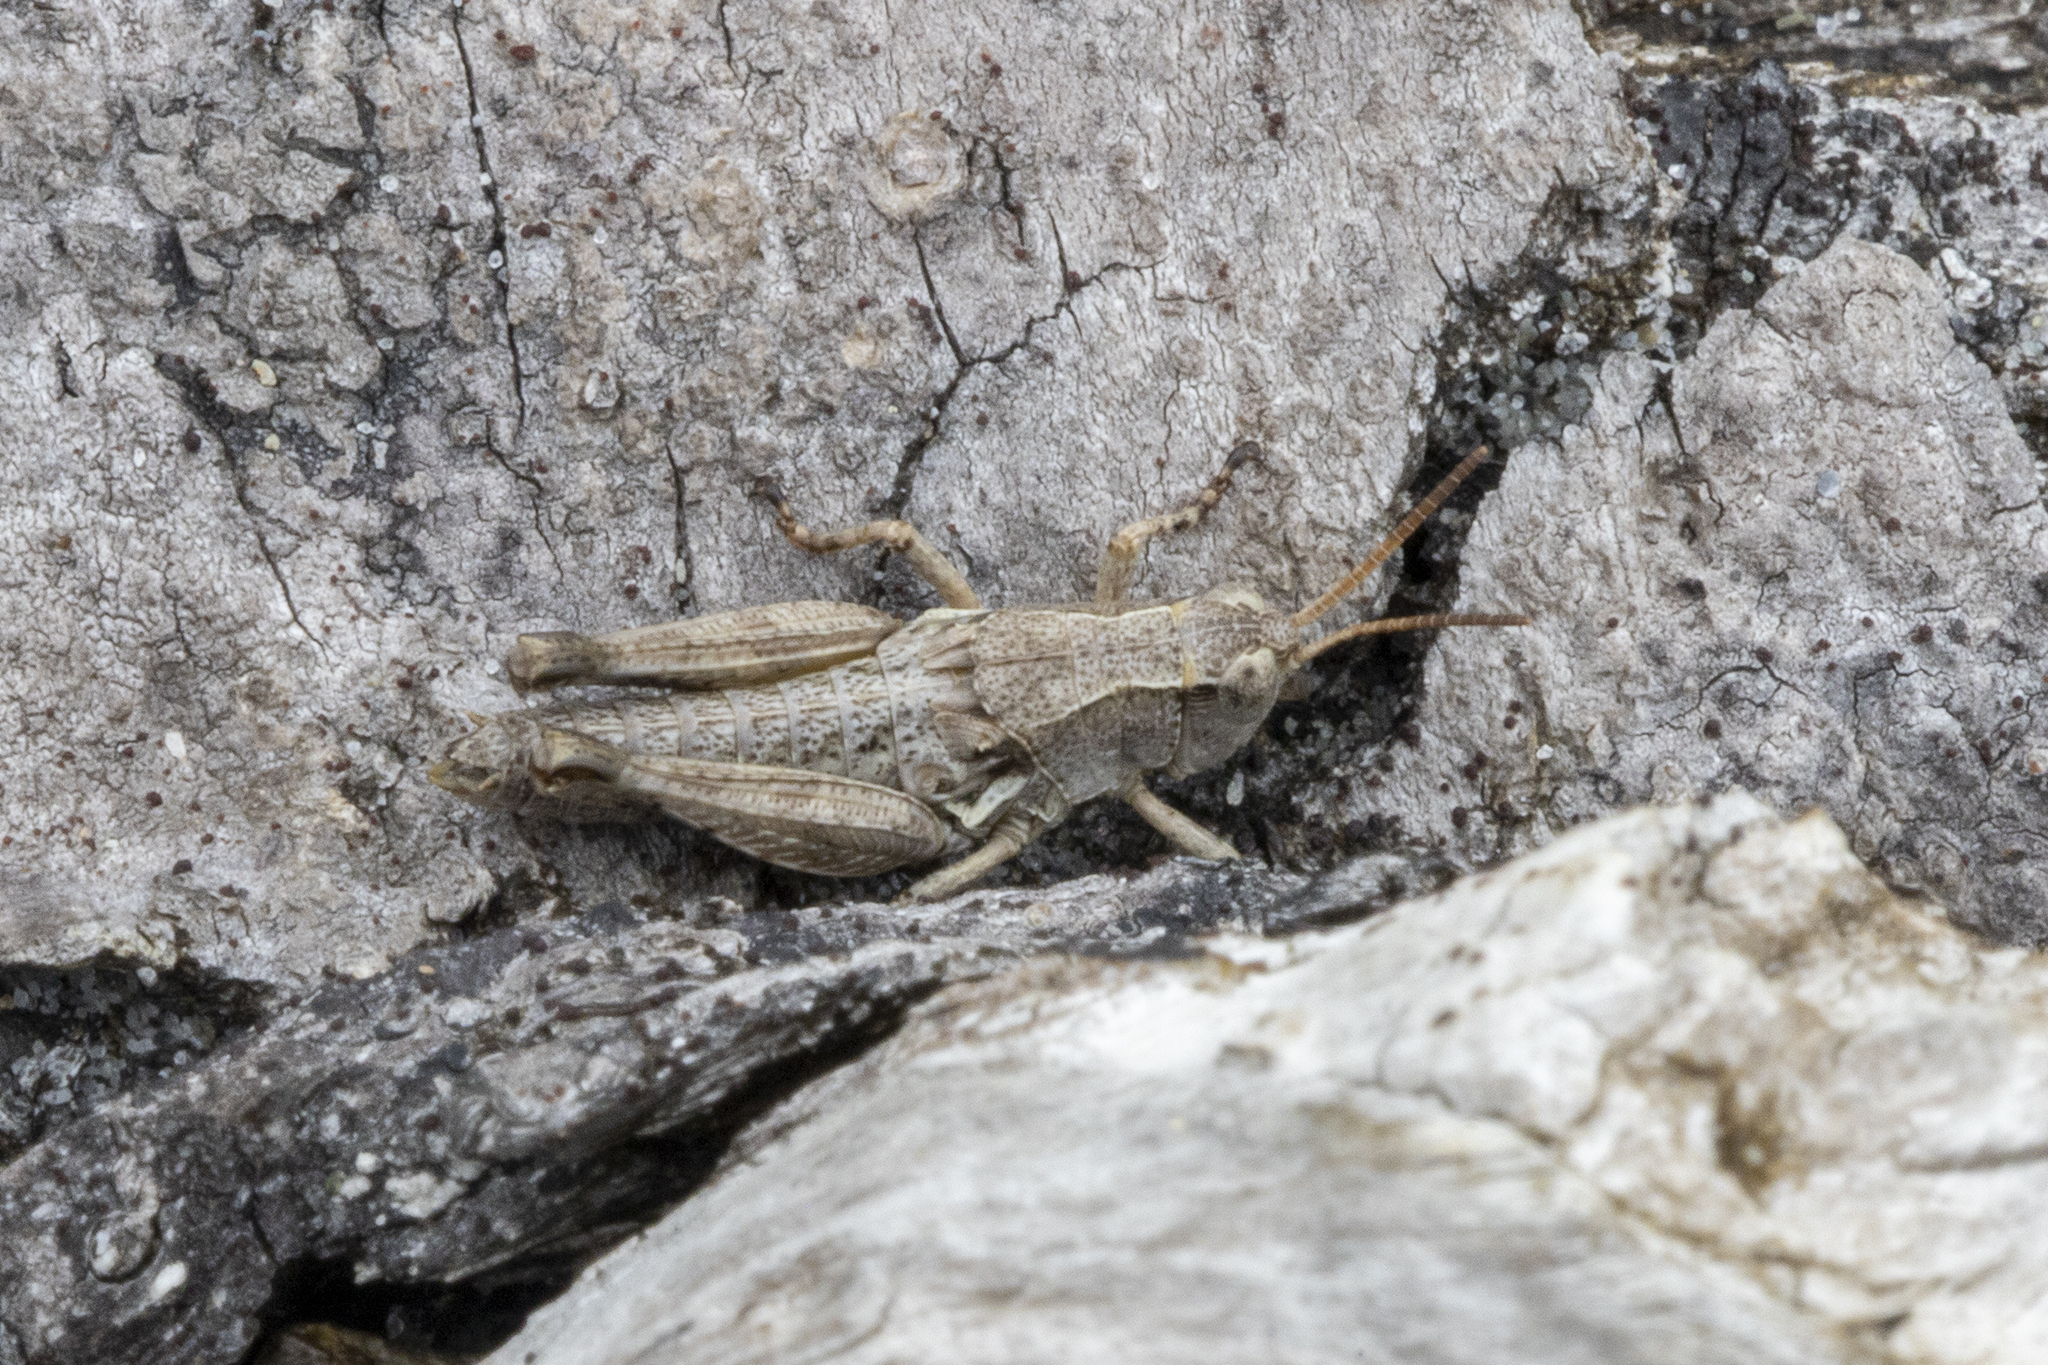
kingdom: Animalia
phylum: Arthropoda
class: Insecta
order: Orthoptera
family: Acrididae
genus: Phaulacridium
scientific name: Phaulacridium marginale
